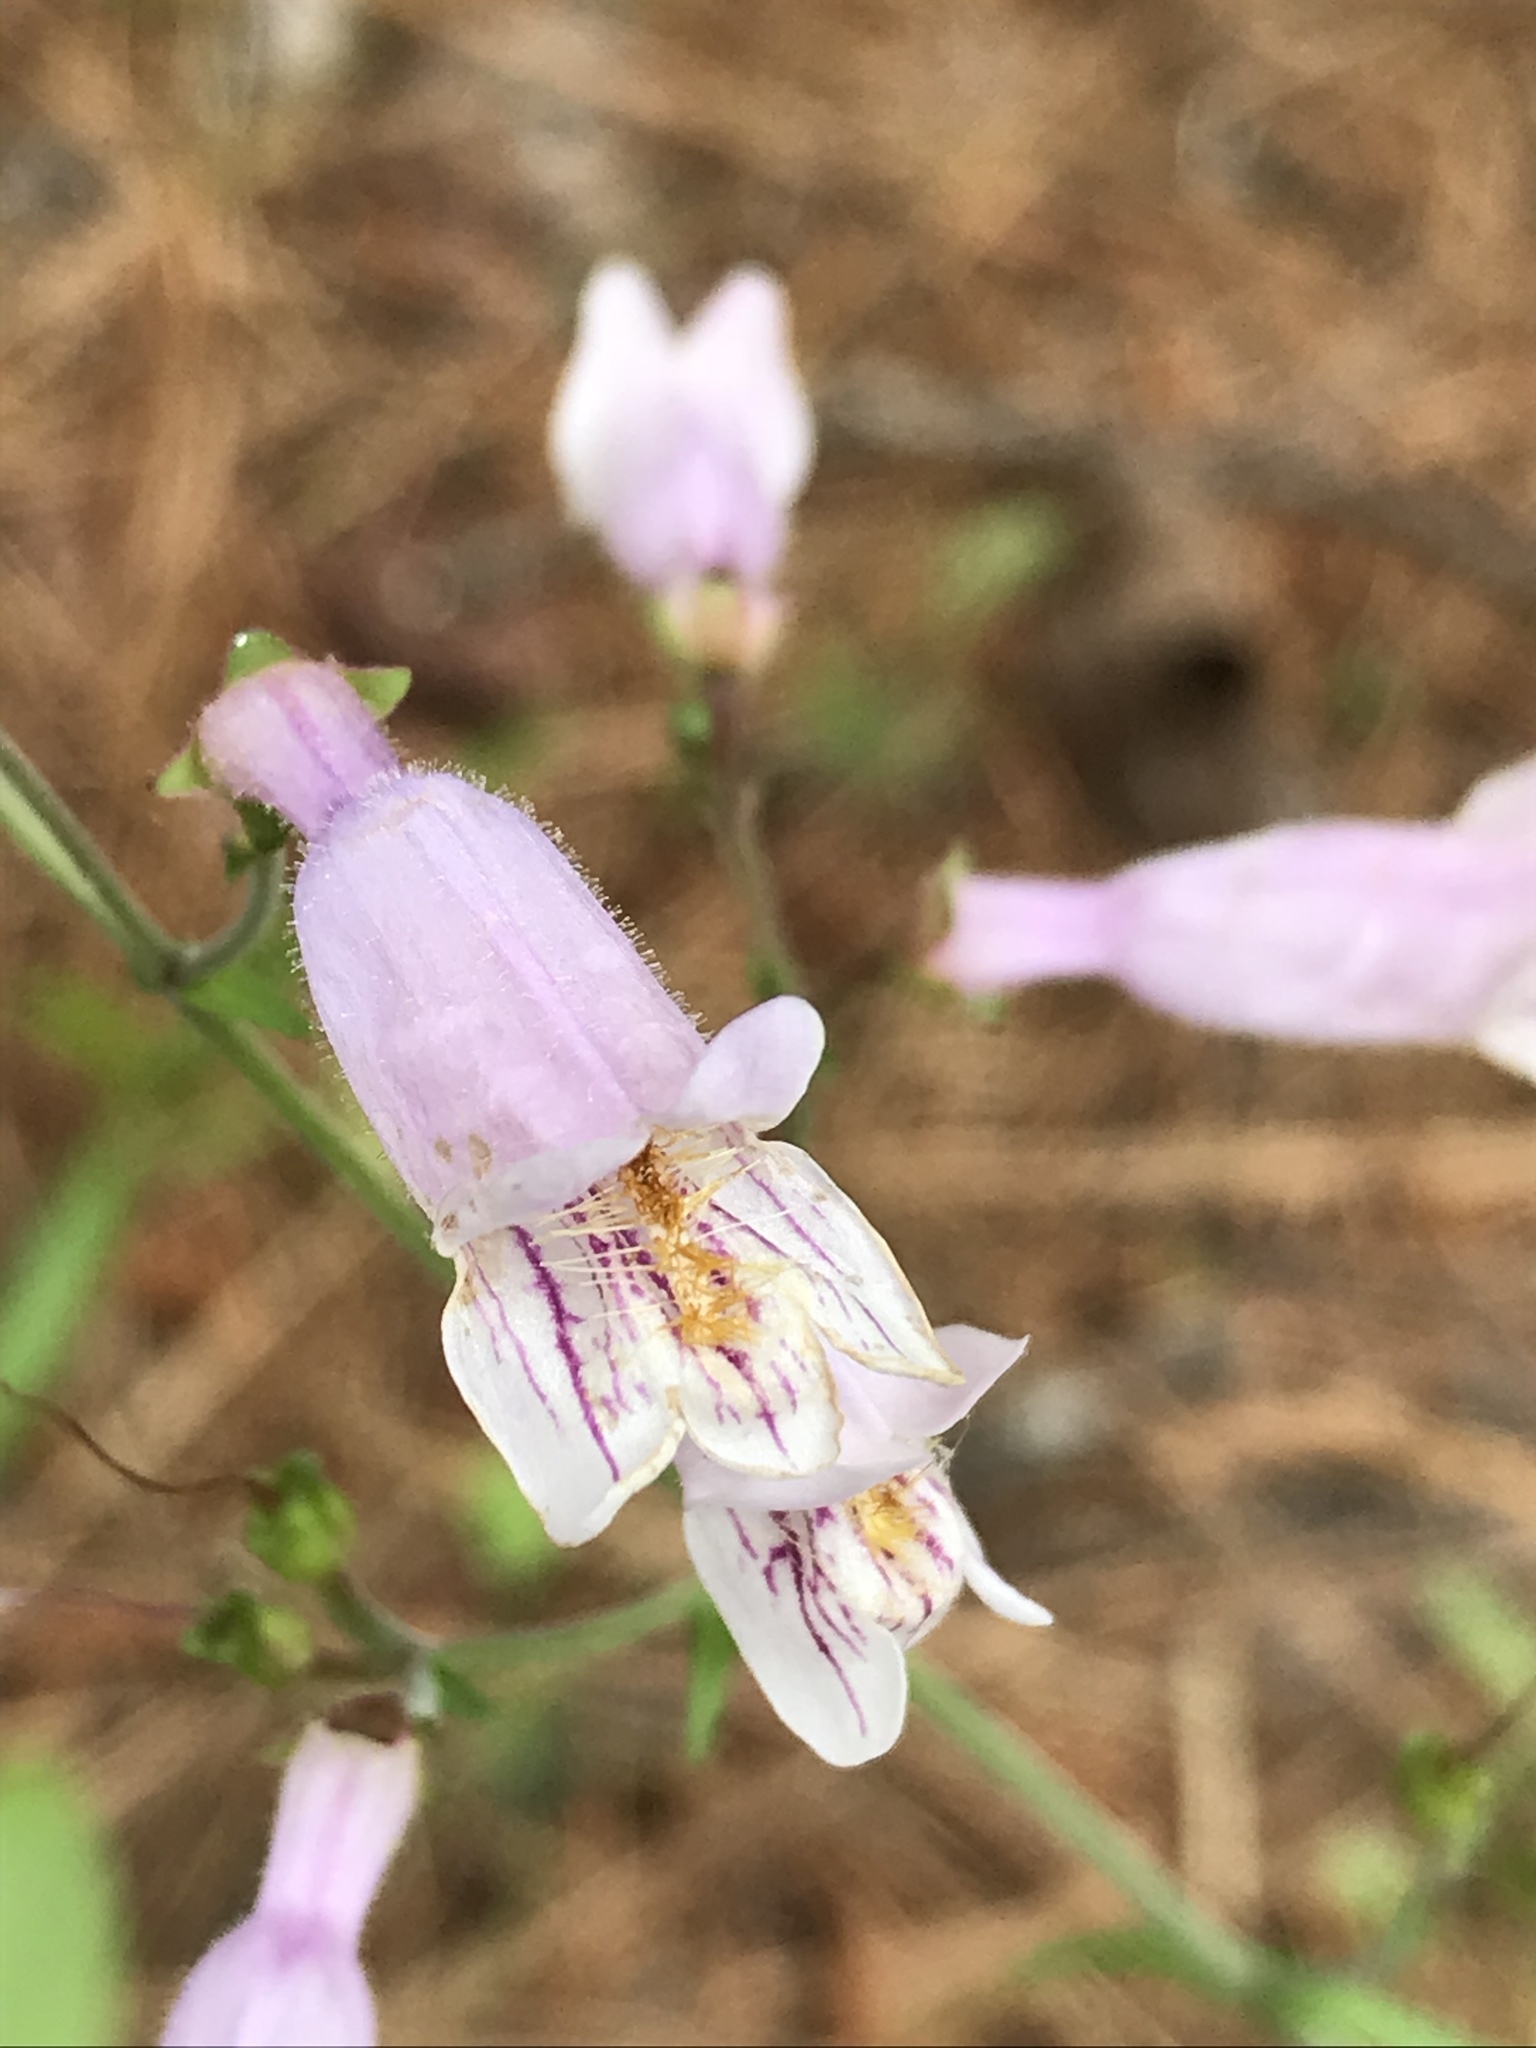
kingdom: Plantae
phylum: Tracheophyta
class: Magnoliopsida
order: Lamiales
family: Plantaginaceae
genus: Penstemon
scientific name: Penstemon laxiflorus
